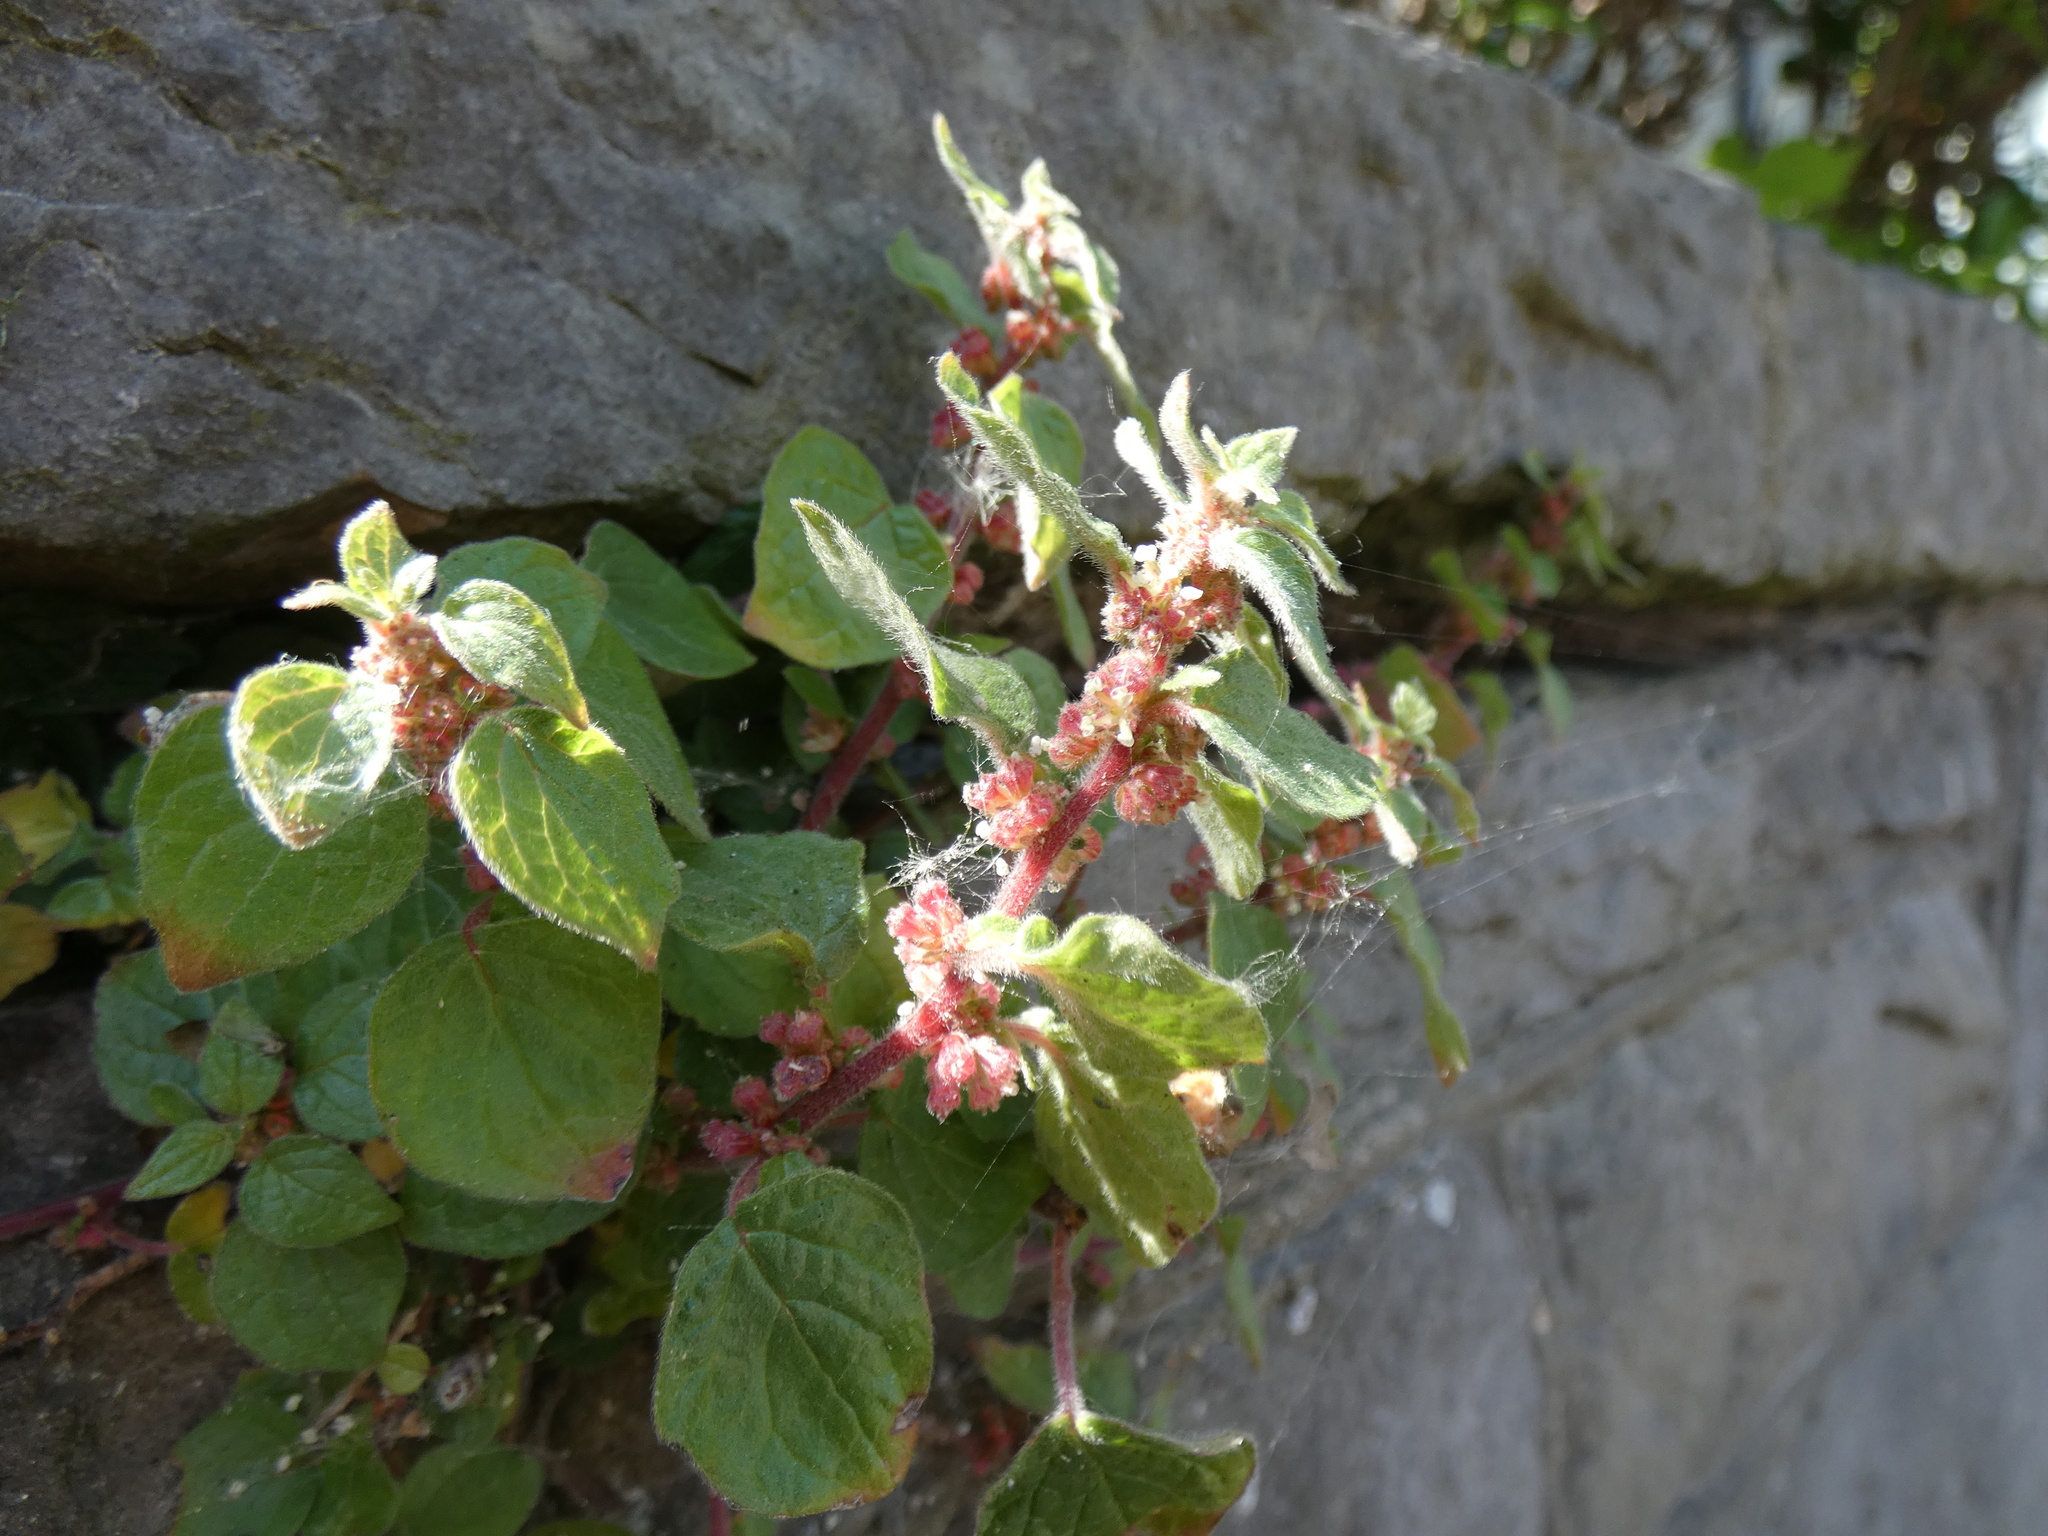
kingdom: Plantae
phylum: Tracheophyta
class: Magnoliopsida
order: Rosales
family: Urticaceae
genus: Parietaria
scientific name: Parietaria judaica
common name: Pellitory-of-the-wall
